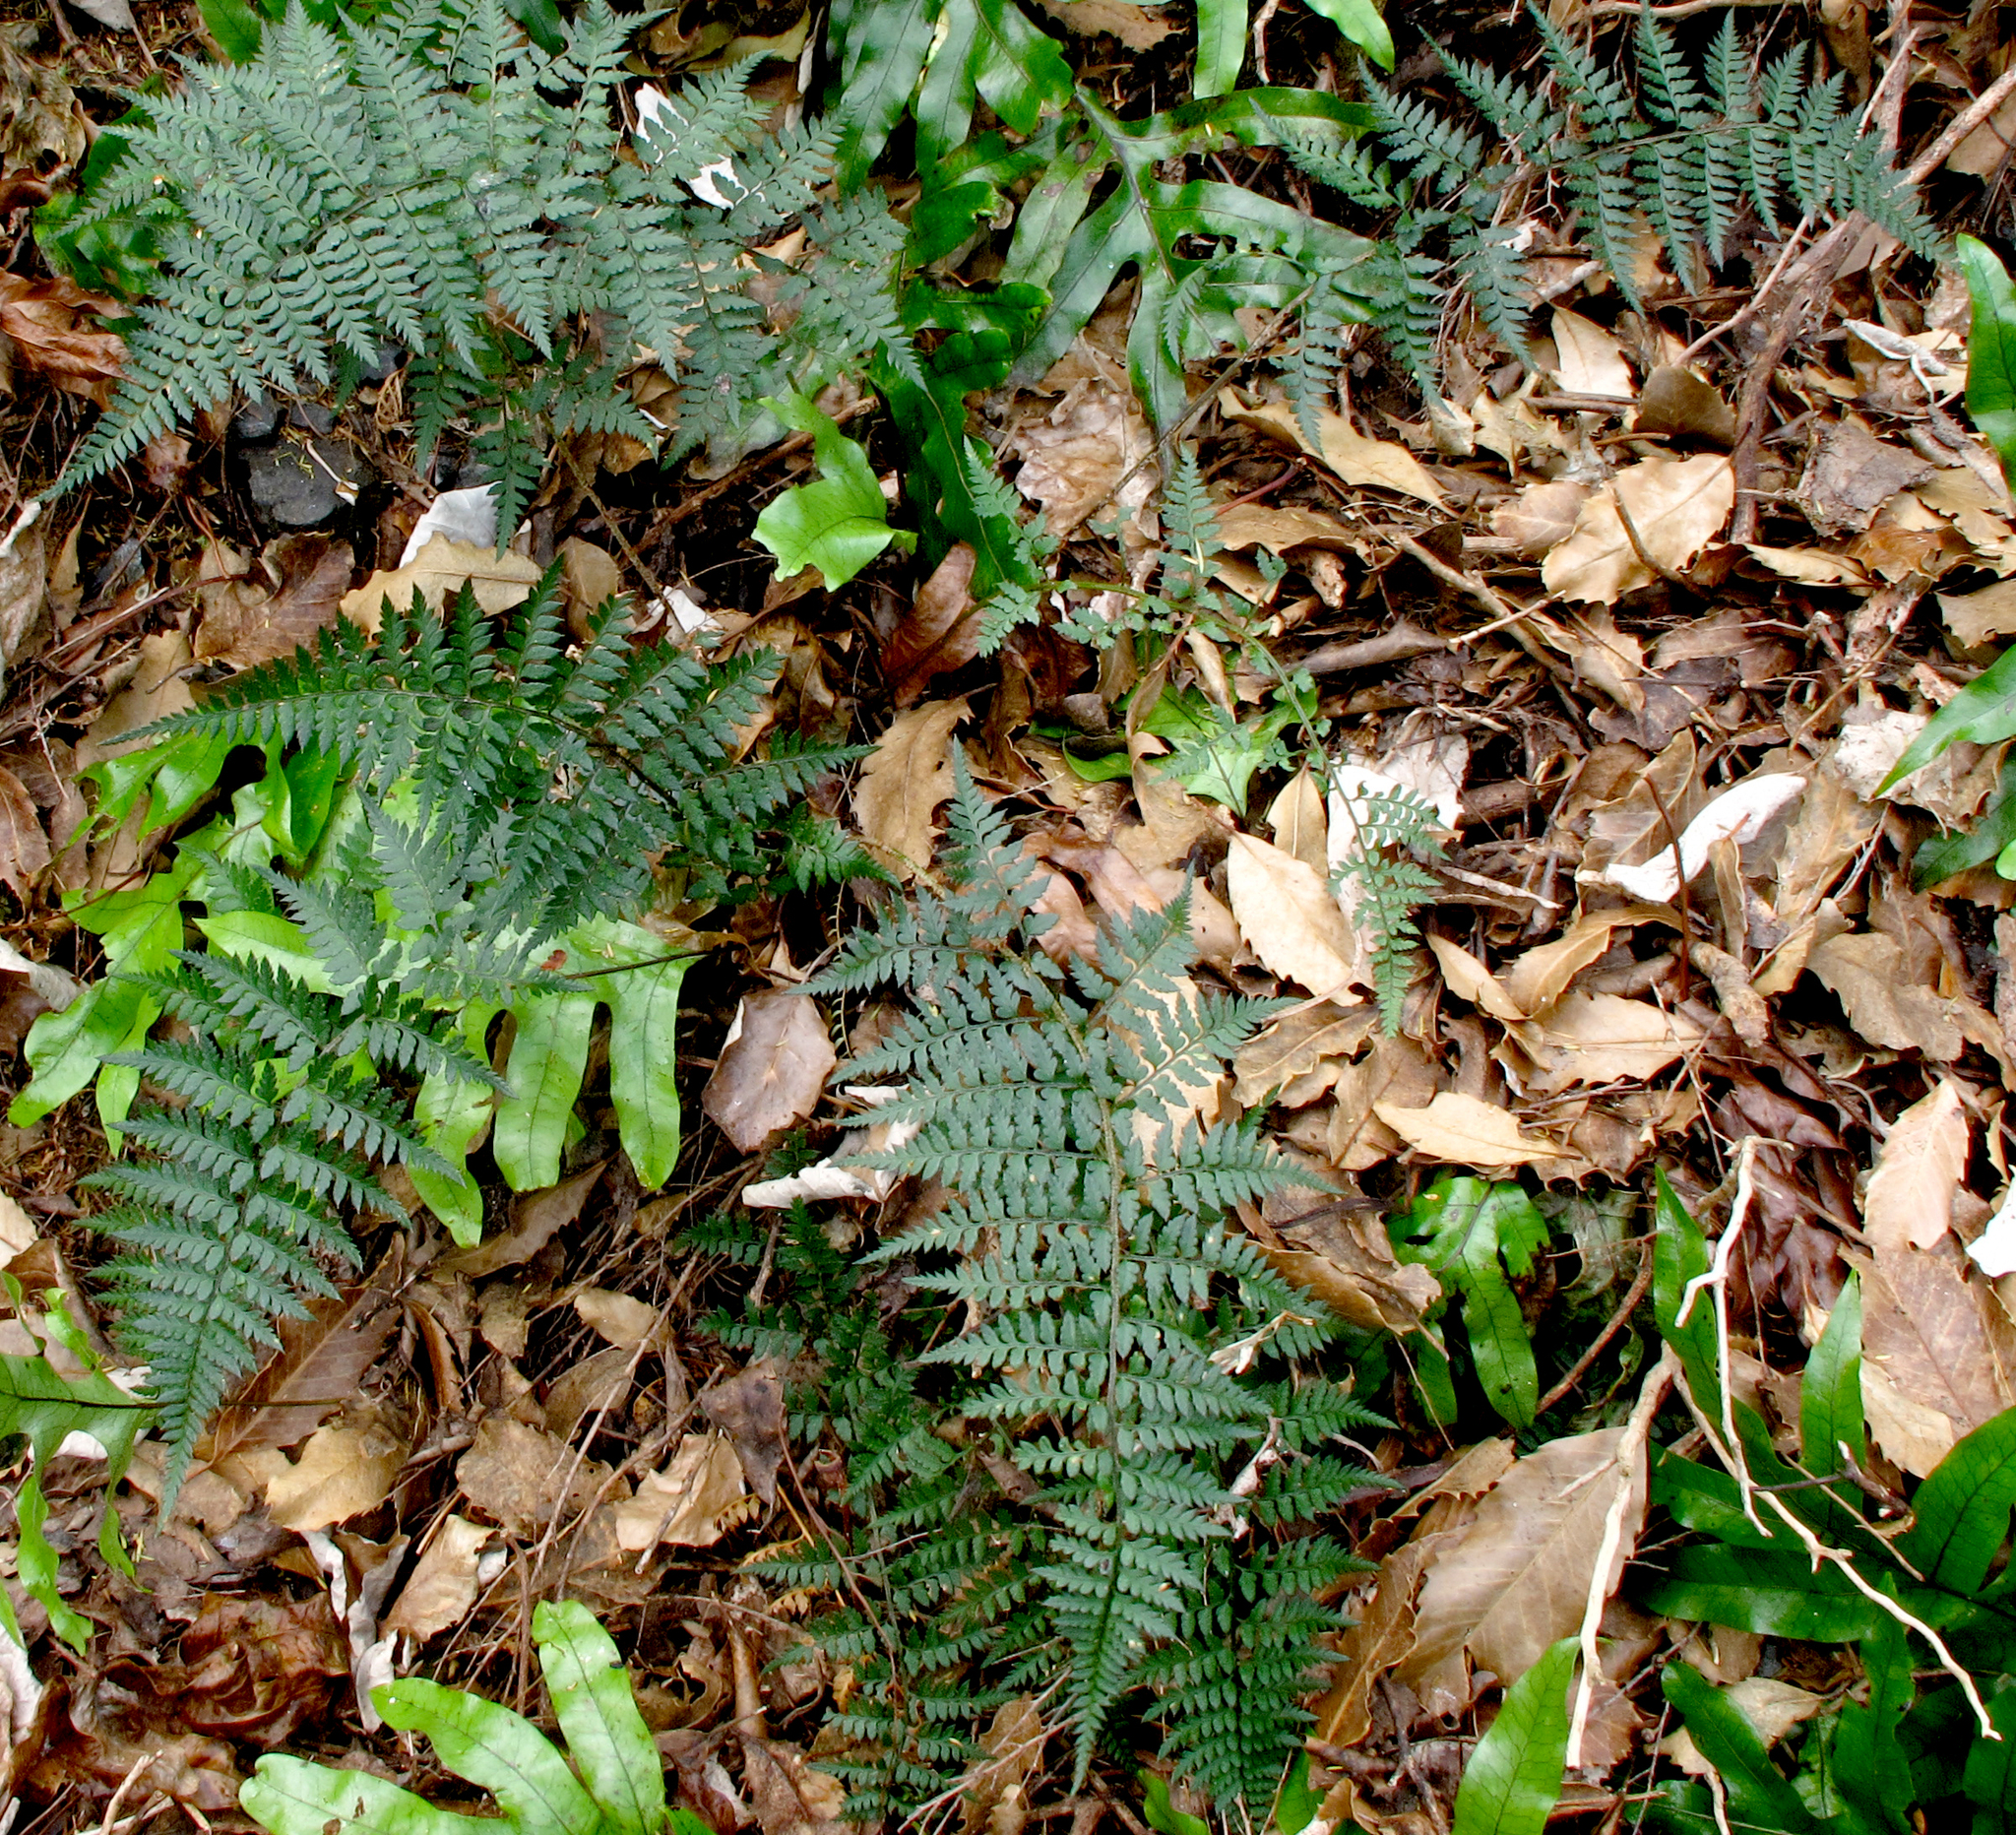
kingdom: Plantae
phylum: Tracheophyta
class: Polypodiopsida
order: Polypodiales
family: Dryopteridaceae
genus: Polystichum
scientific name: Polystichum oculatum
